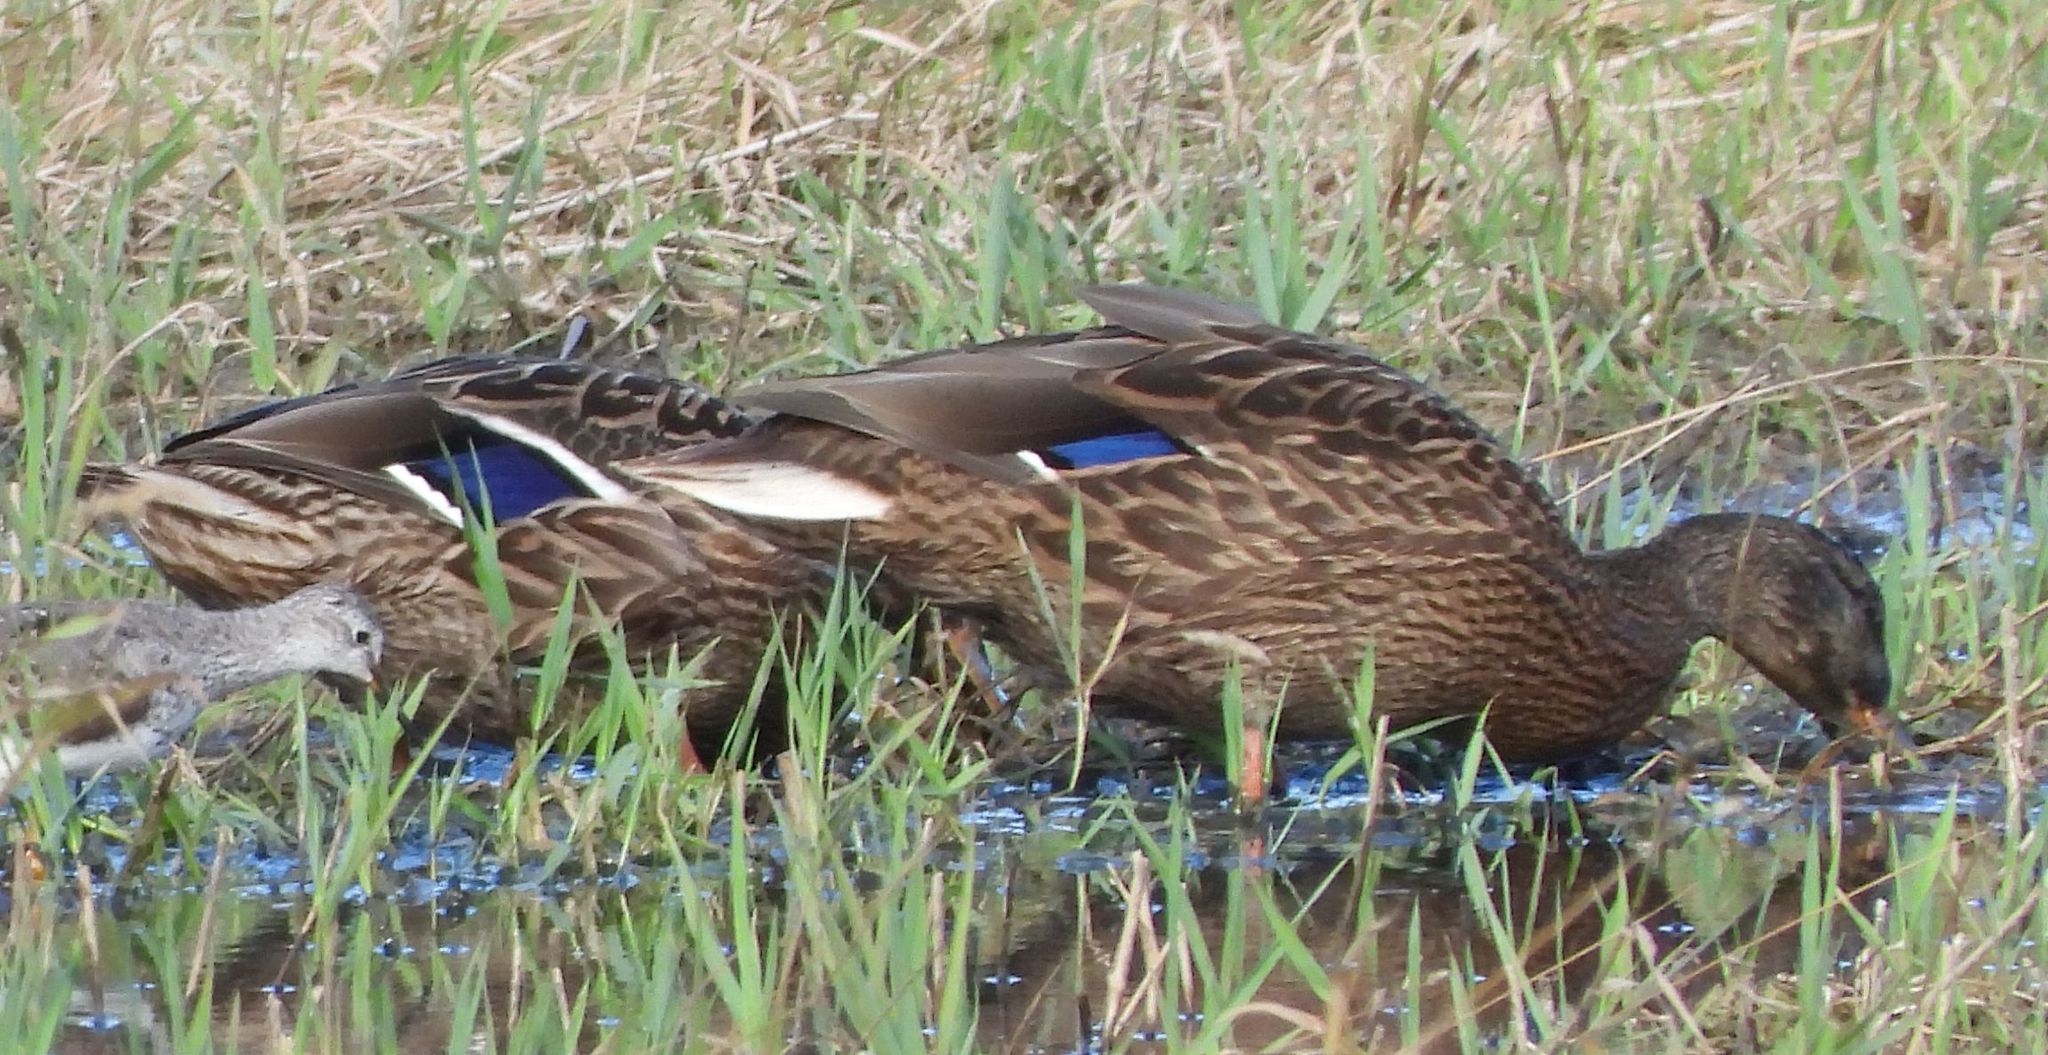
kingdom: Animalia
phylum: Chordata
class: Aves
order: Anseriformes
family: Anatidae
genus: Anas
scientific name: Anas platyrhynchos
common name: Mallard
